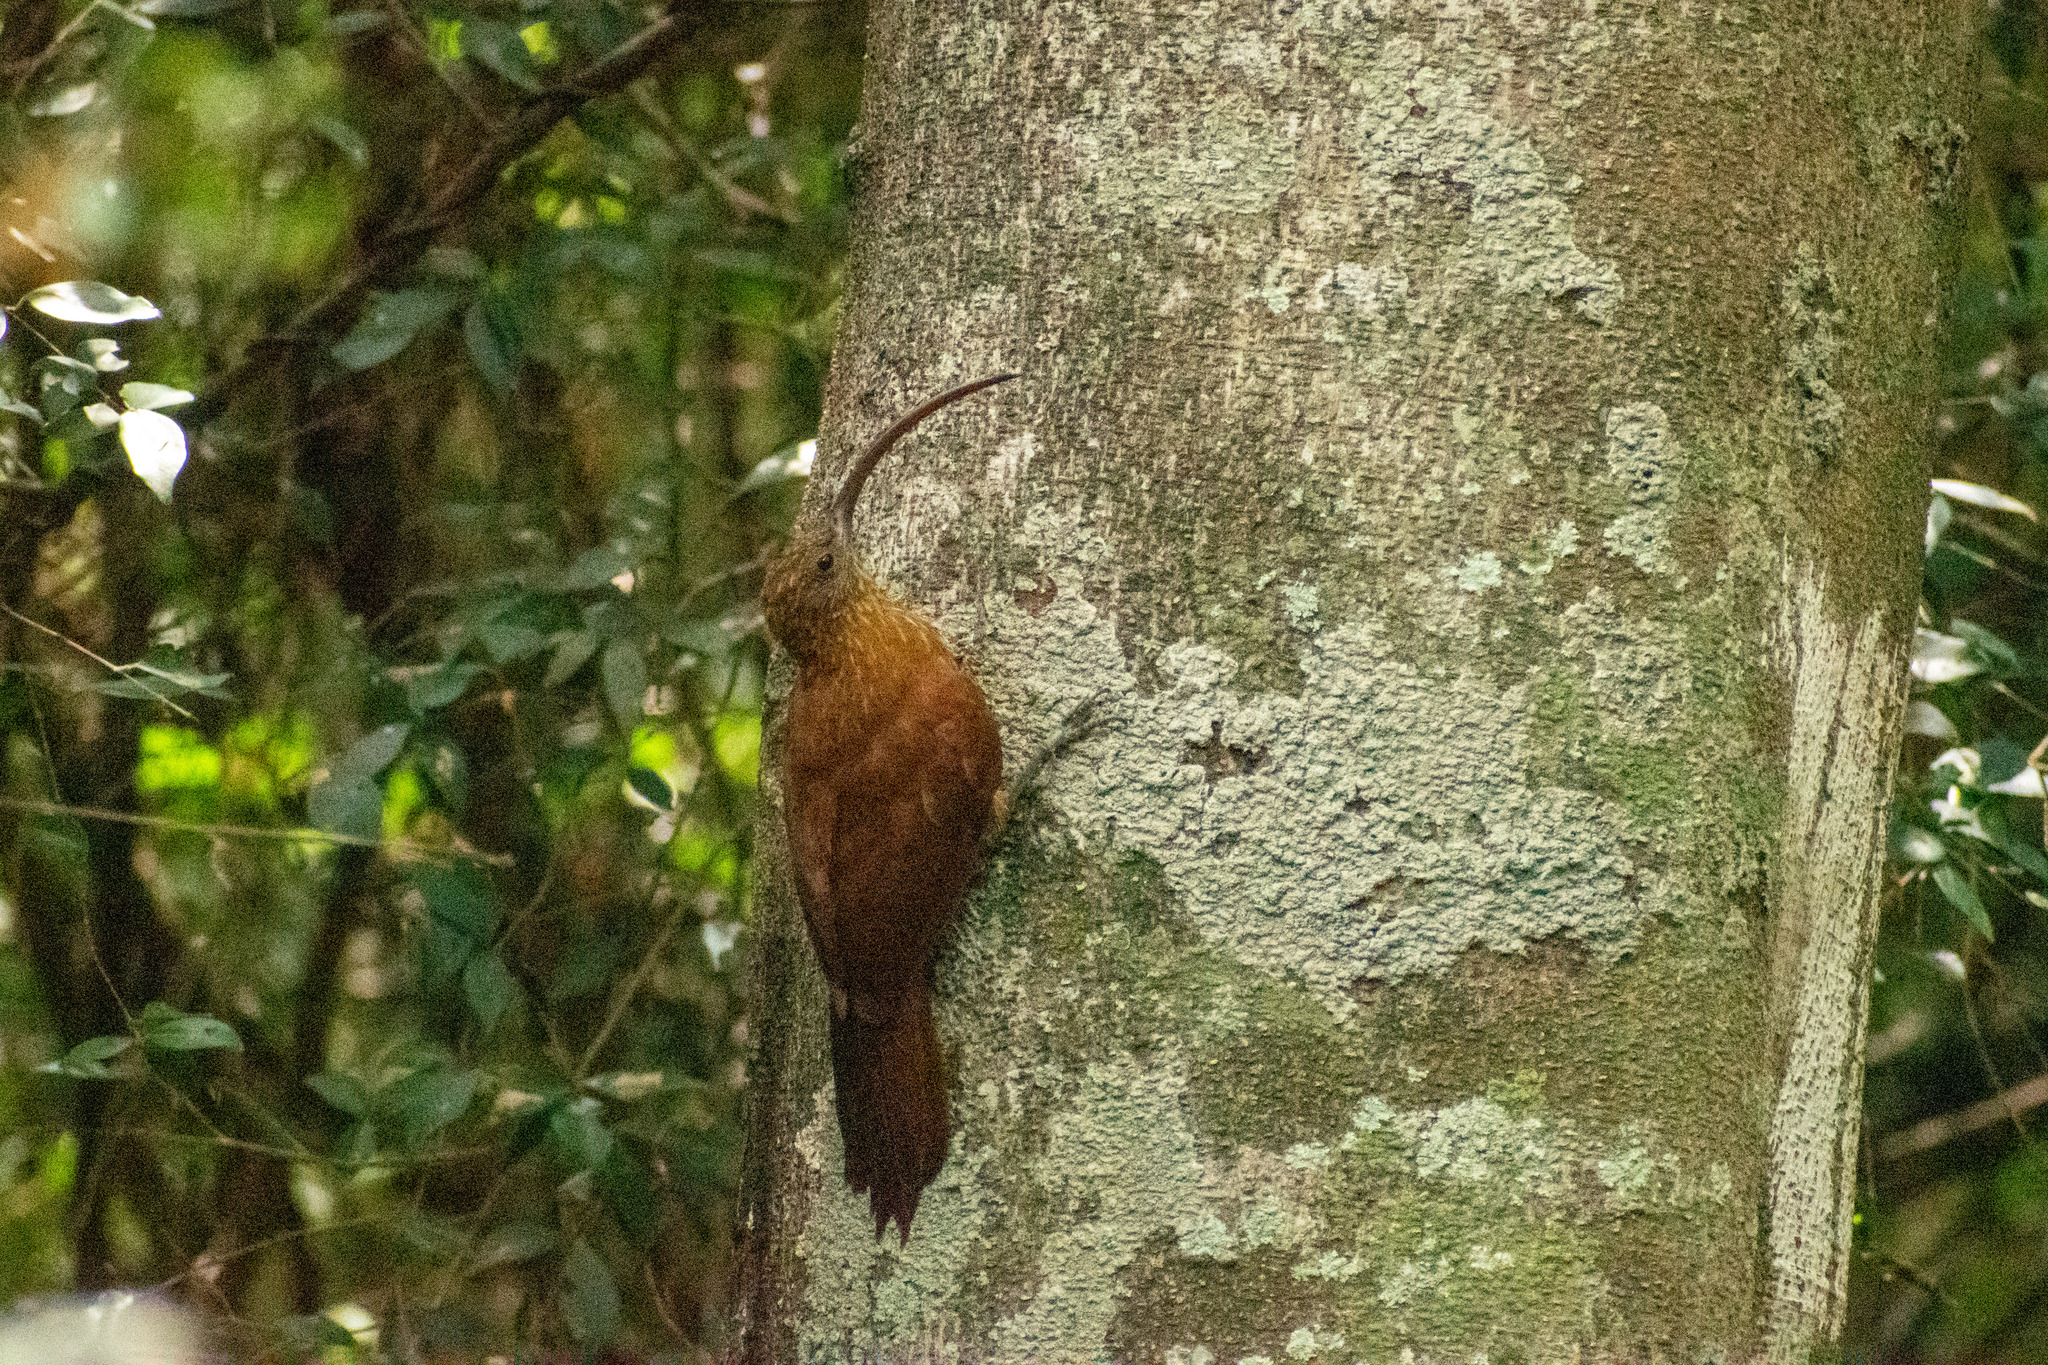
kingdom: Animalia
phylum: Chordata
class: Aves
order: Passeriformes
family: Furnariidae
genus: Campylorhamphus
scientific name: Campylorhamphus trochilirostris
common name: Red-billed scythebill
